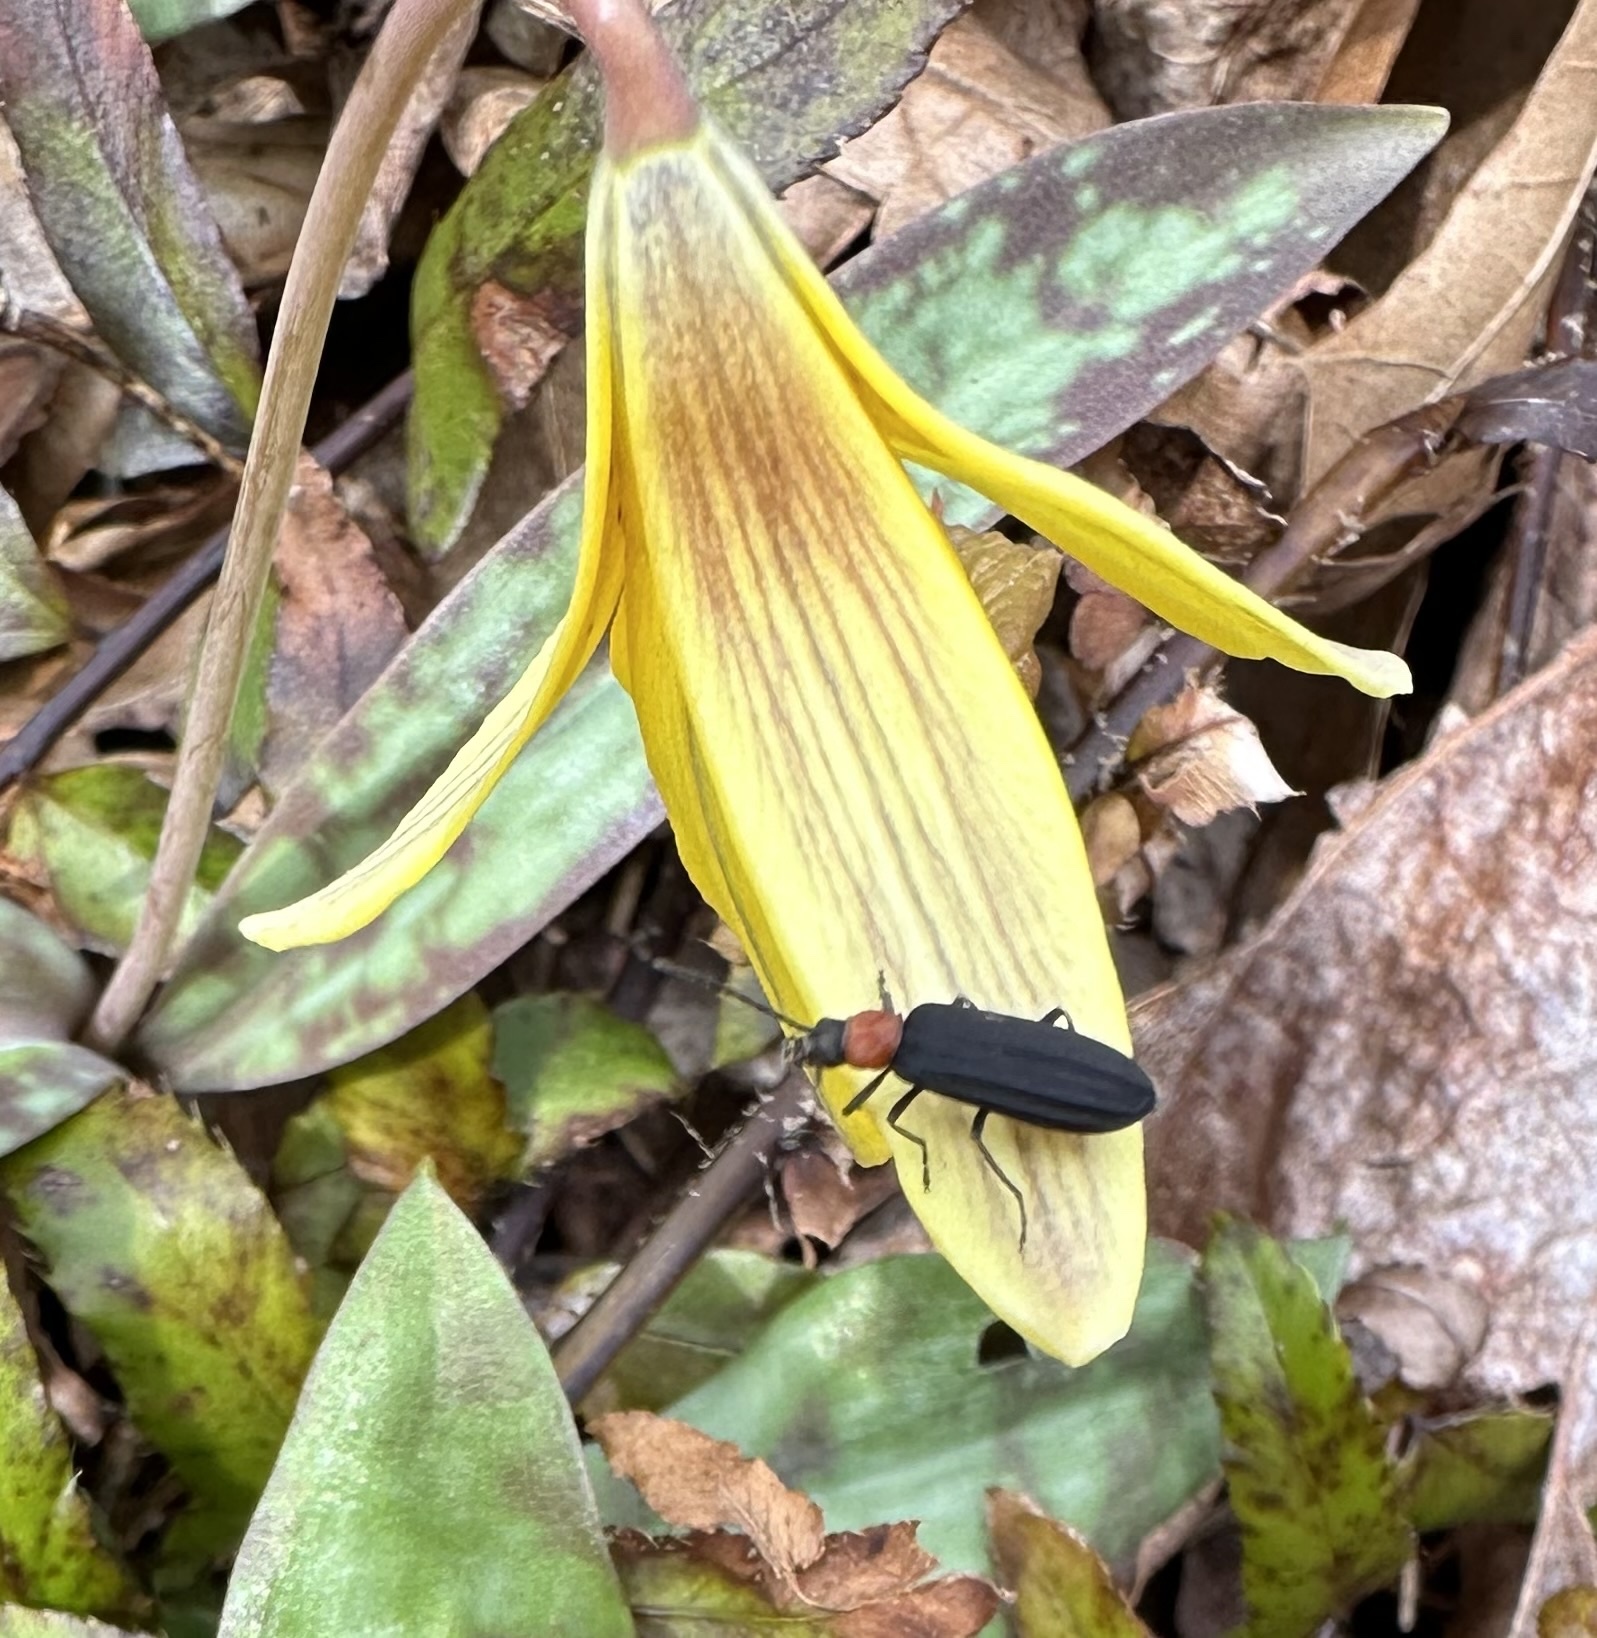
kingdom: Animalia
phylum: Arthropoda
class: Insecta
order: Coleoptera
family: Oedemeridae
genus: Ischnomera
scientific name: Ischnomera
